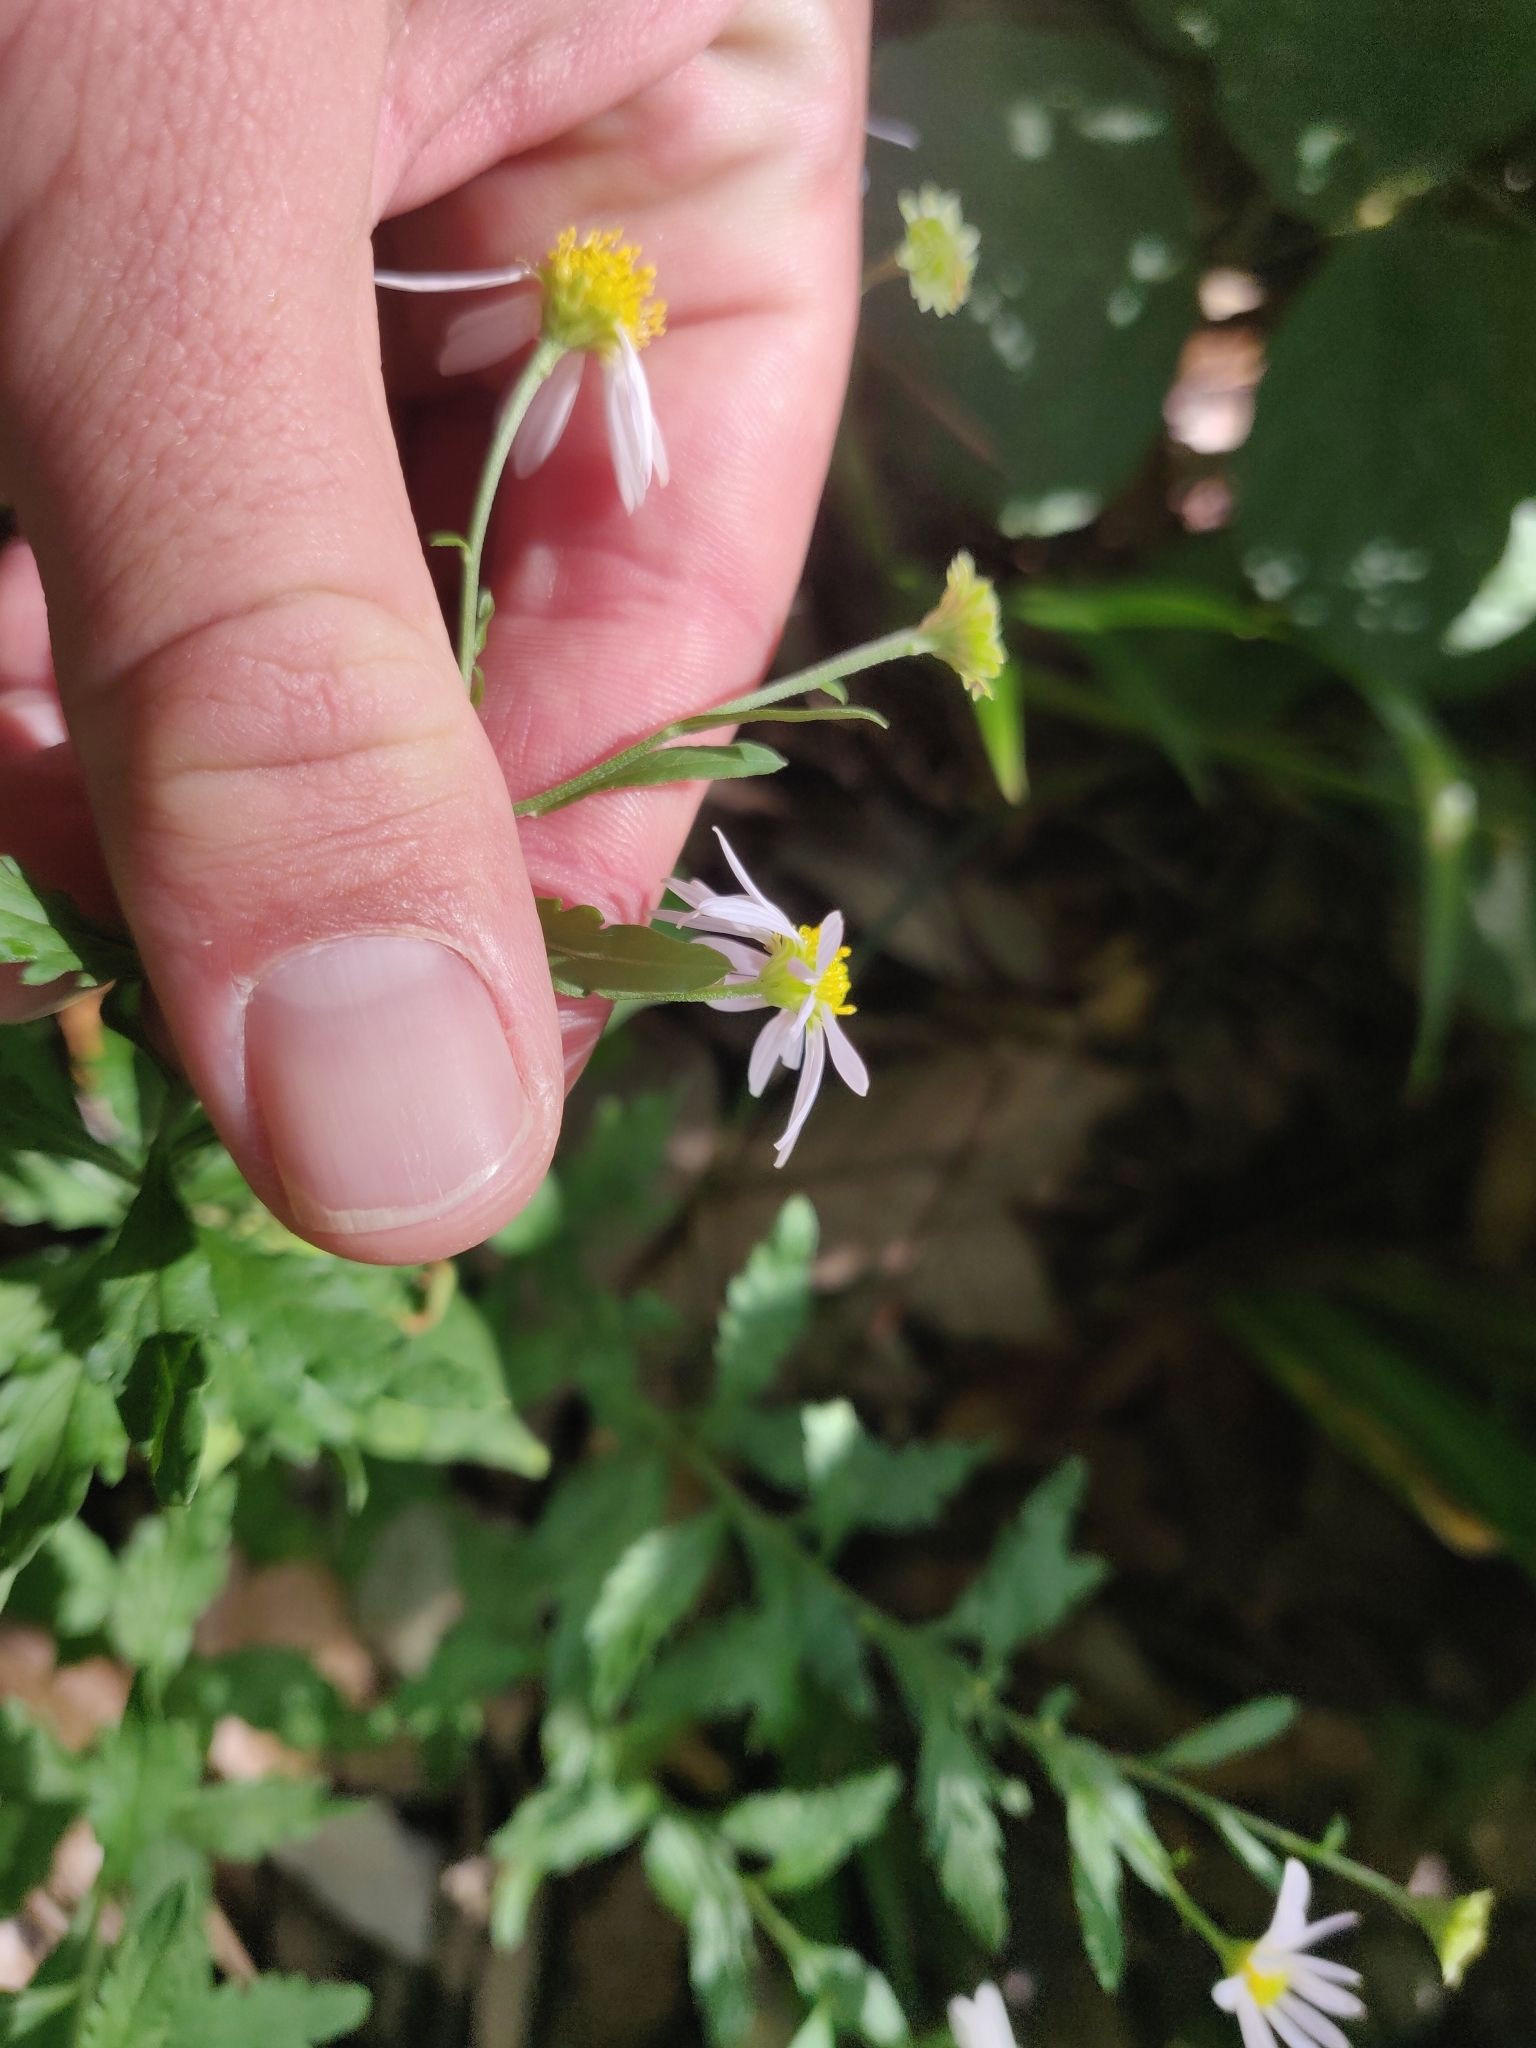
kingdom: Plantae
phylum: Tracheophyta
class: Magnoliopsida
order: Asterales
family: Asteraceae
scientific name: Asteraceae
